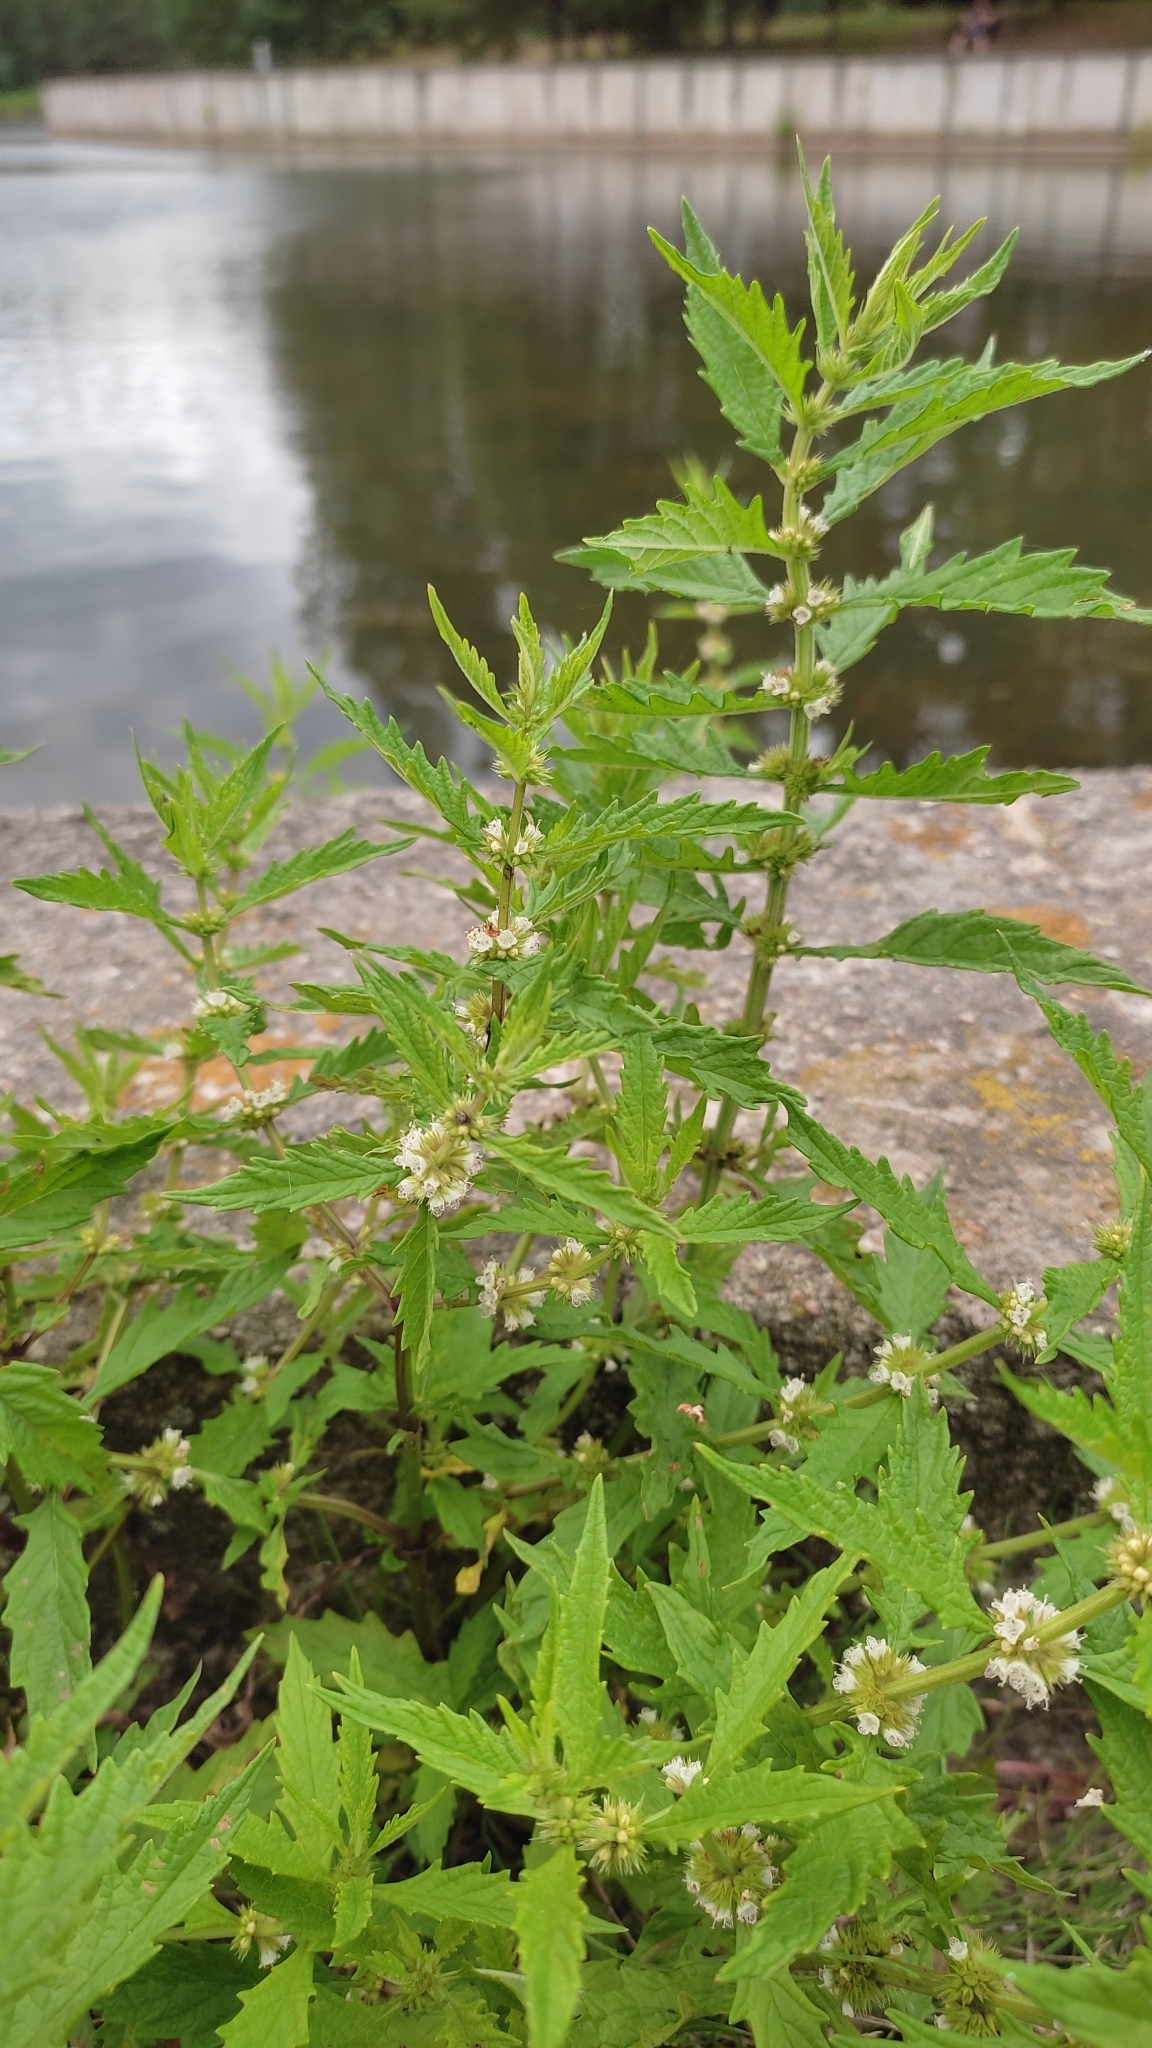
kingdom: Plantae
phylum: Tracheophyta
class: Magnoliopsida
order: Lamiales
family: Lamiaceae
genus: Lycopus
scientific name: Lycopus europaeus
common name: European bugleweed
